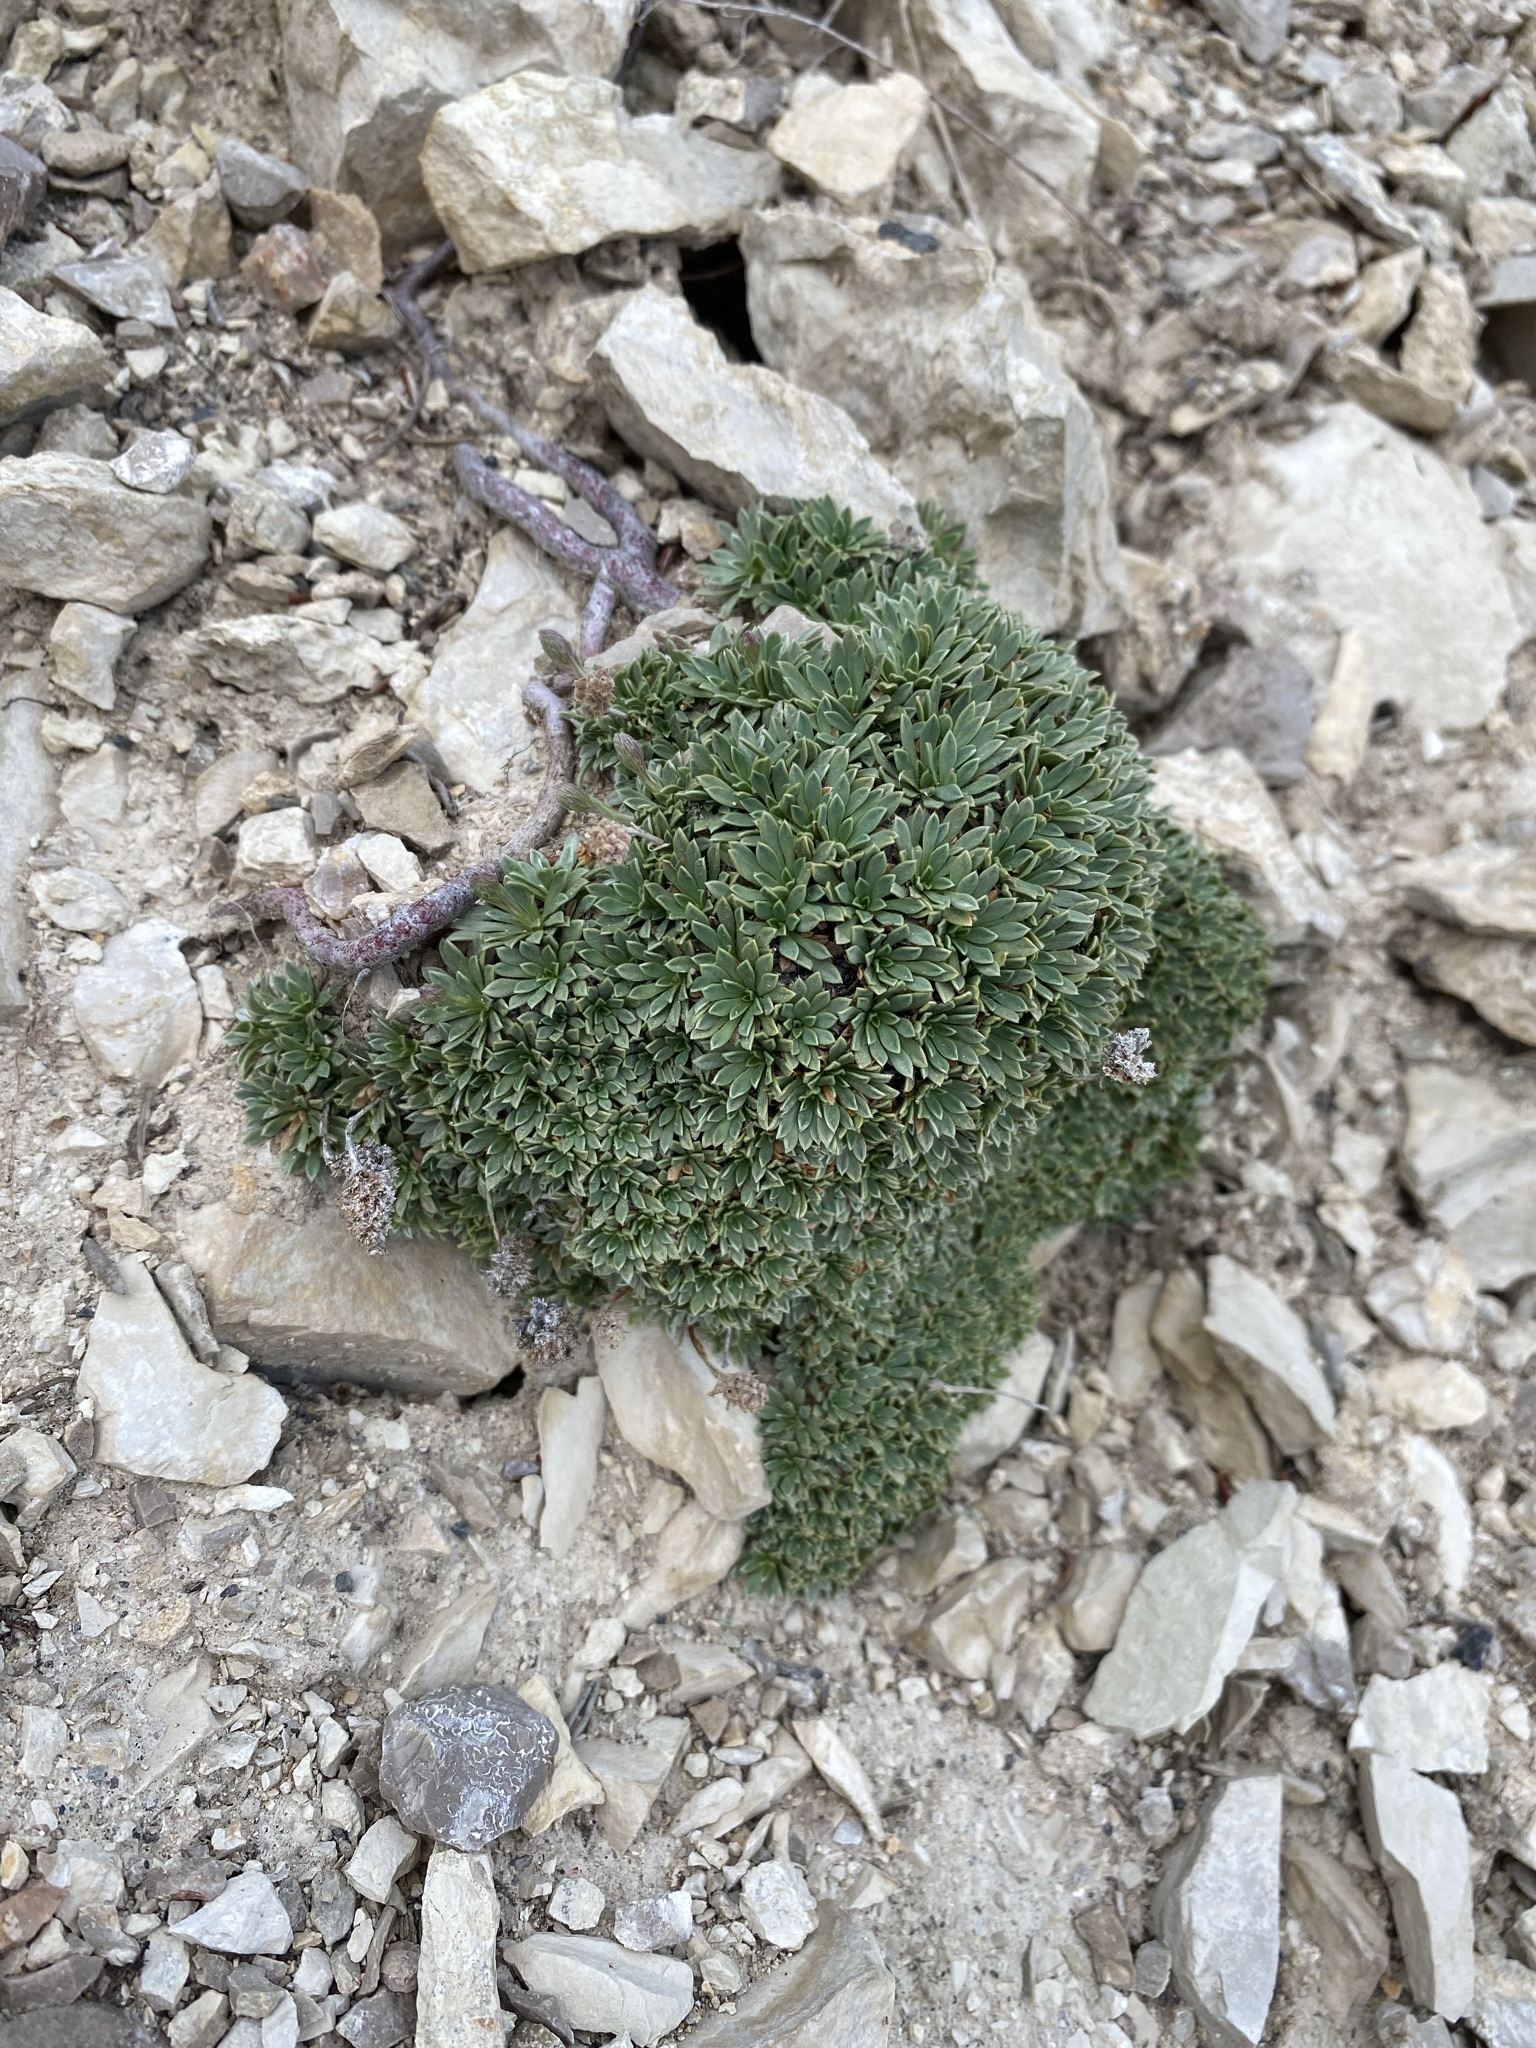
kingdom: Plantae
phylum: Tracheophyta
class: Magnoliopsida
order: Rosales
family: Rosaceae
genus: Petrophytum
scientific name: Petrophytum caespitosum
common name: Mat rockspirea
